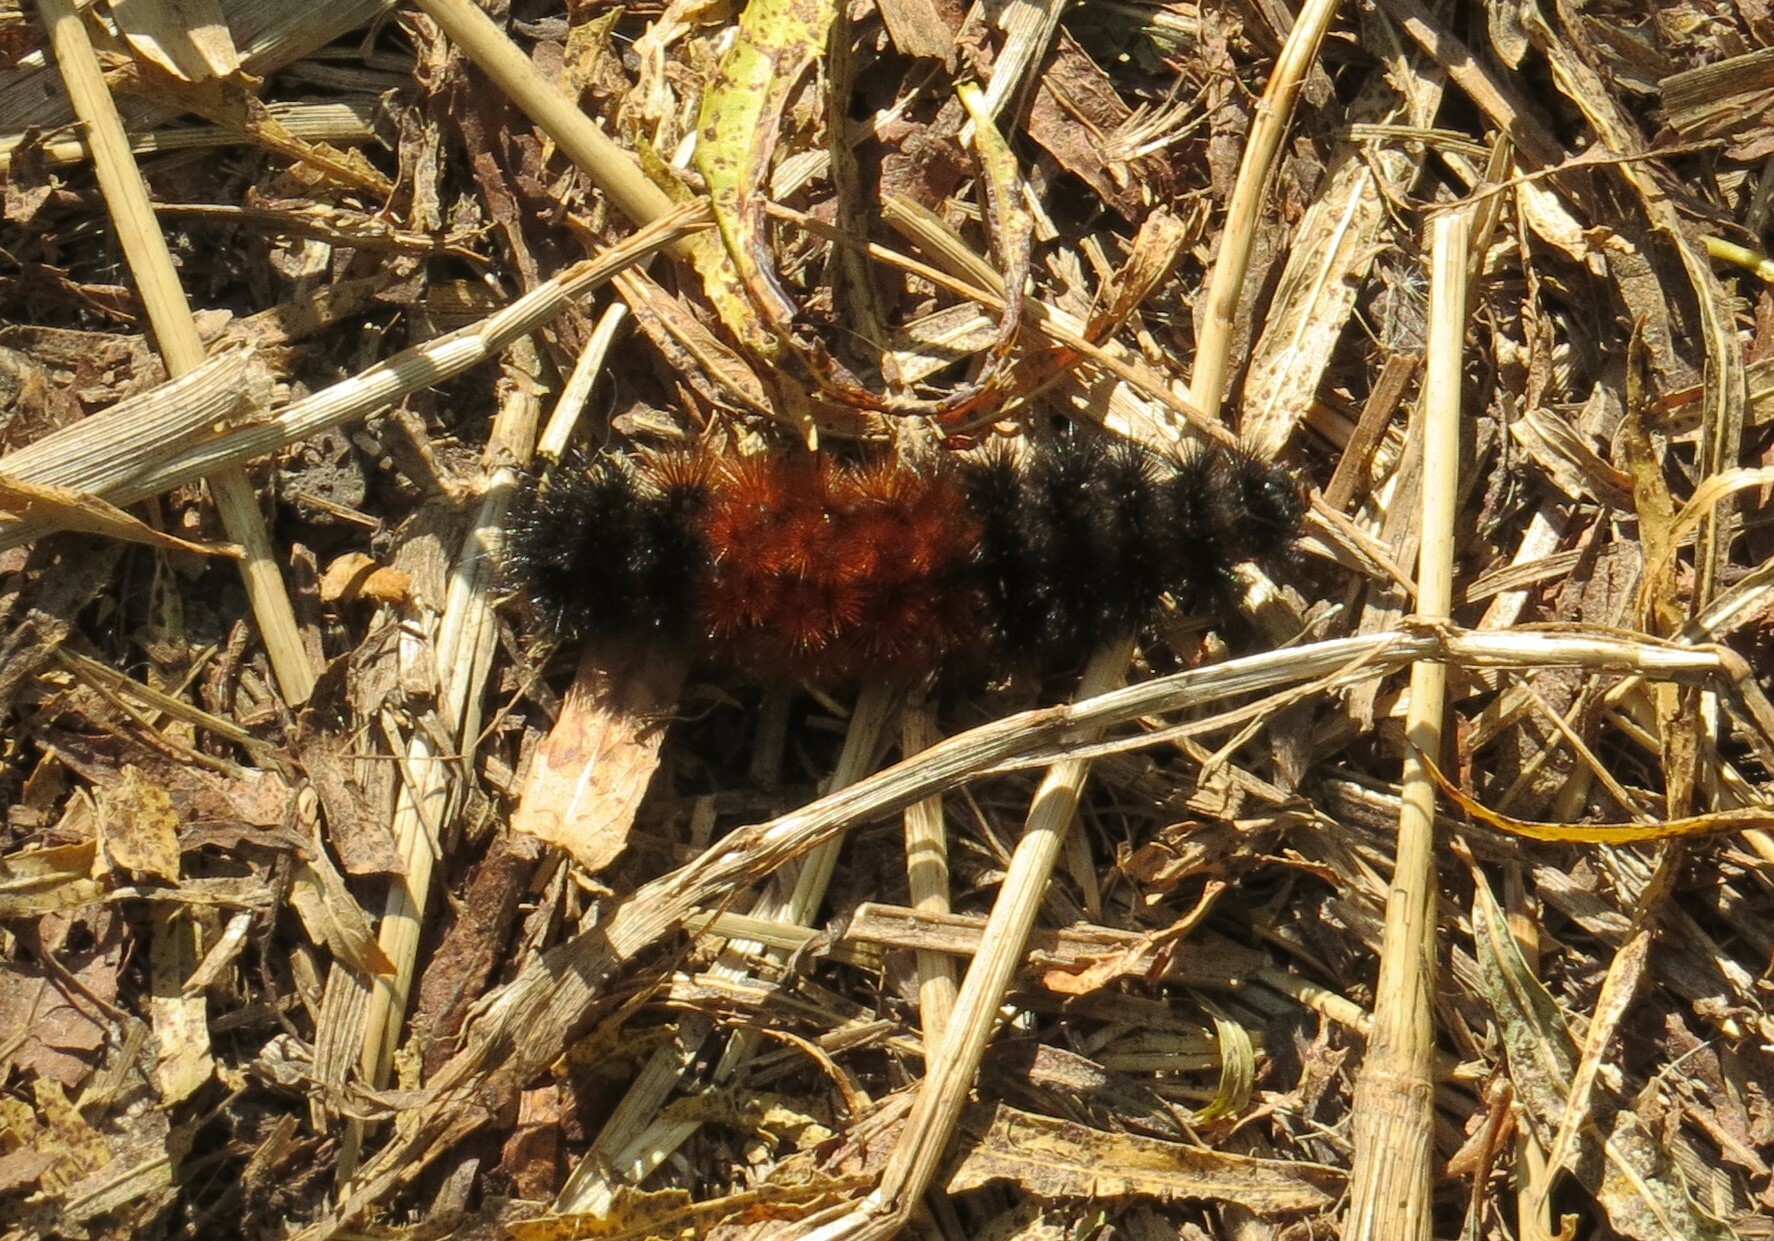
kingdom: Animalia
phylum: Arthropoda
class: Insecta
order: Lepidoptera
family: Erebidae
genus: Pyrrharctia
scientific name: Pyrrharctia isabella
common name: Isabella tiger moth
